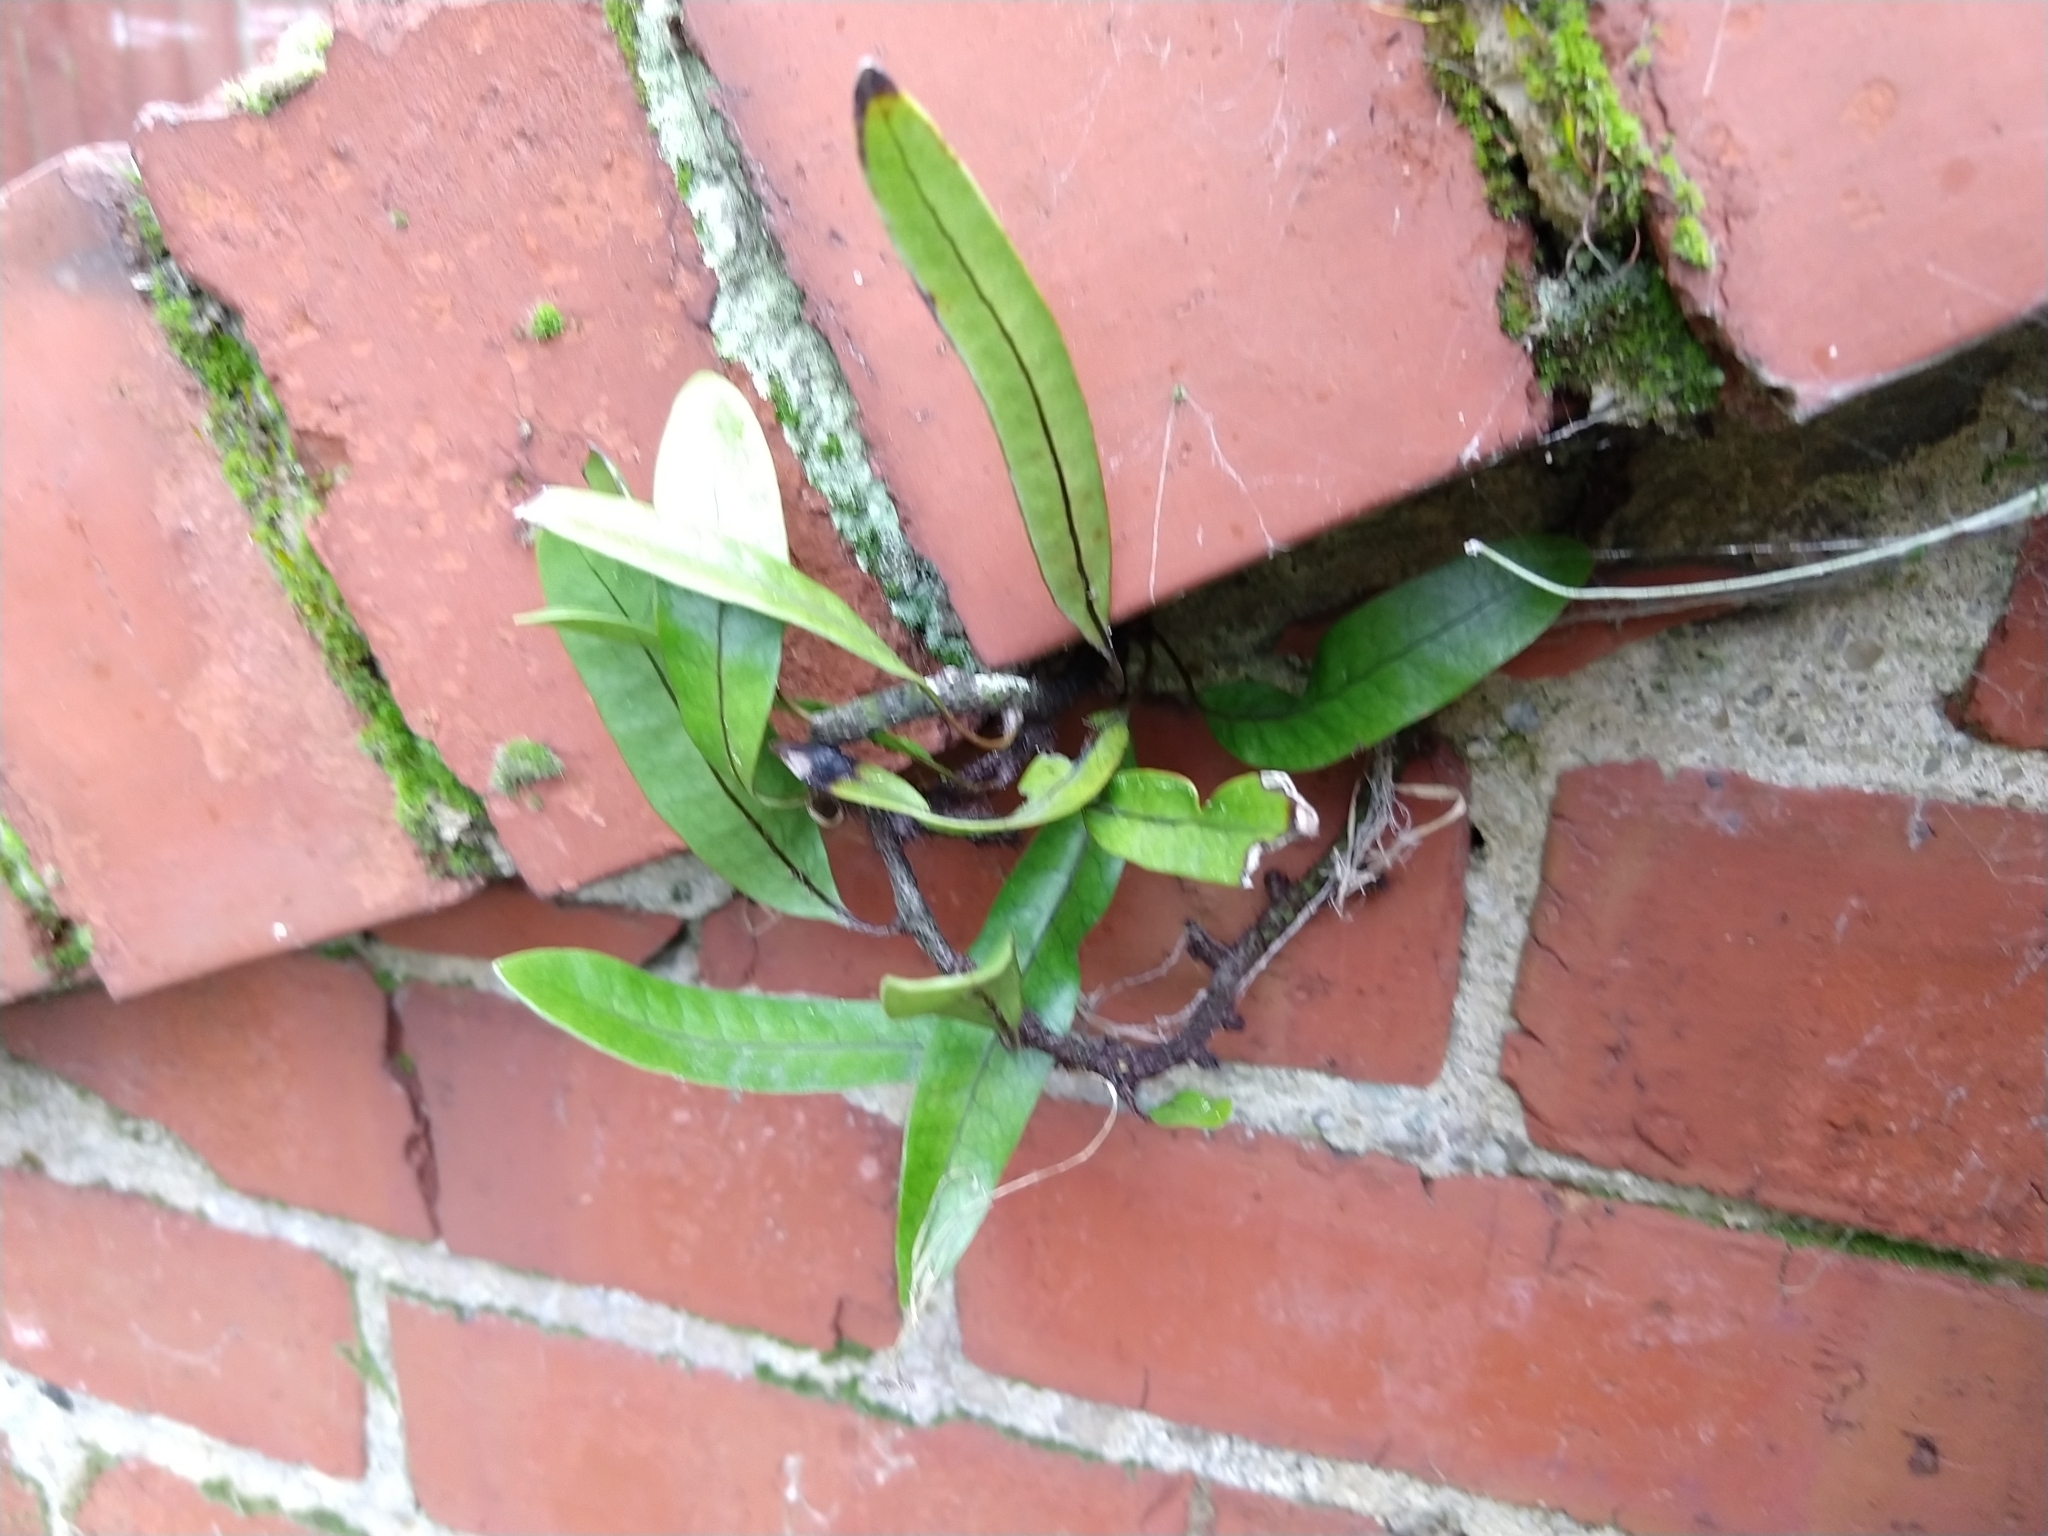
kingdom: Plantae
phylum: Tracheophyta
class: Polypodiopsida
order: Polypodiales
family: Polypodiaceae
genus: Lecanopteris
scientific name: Lecanopteris pustulata
